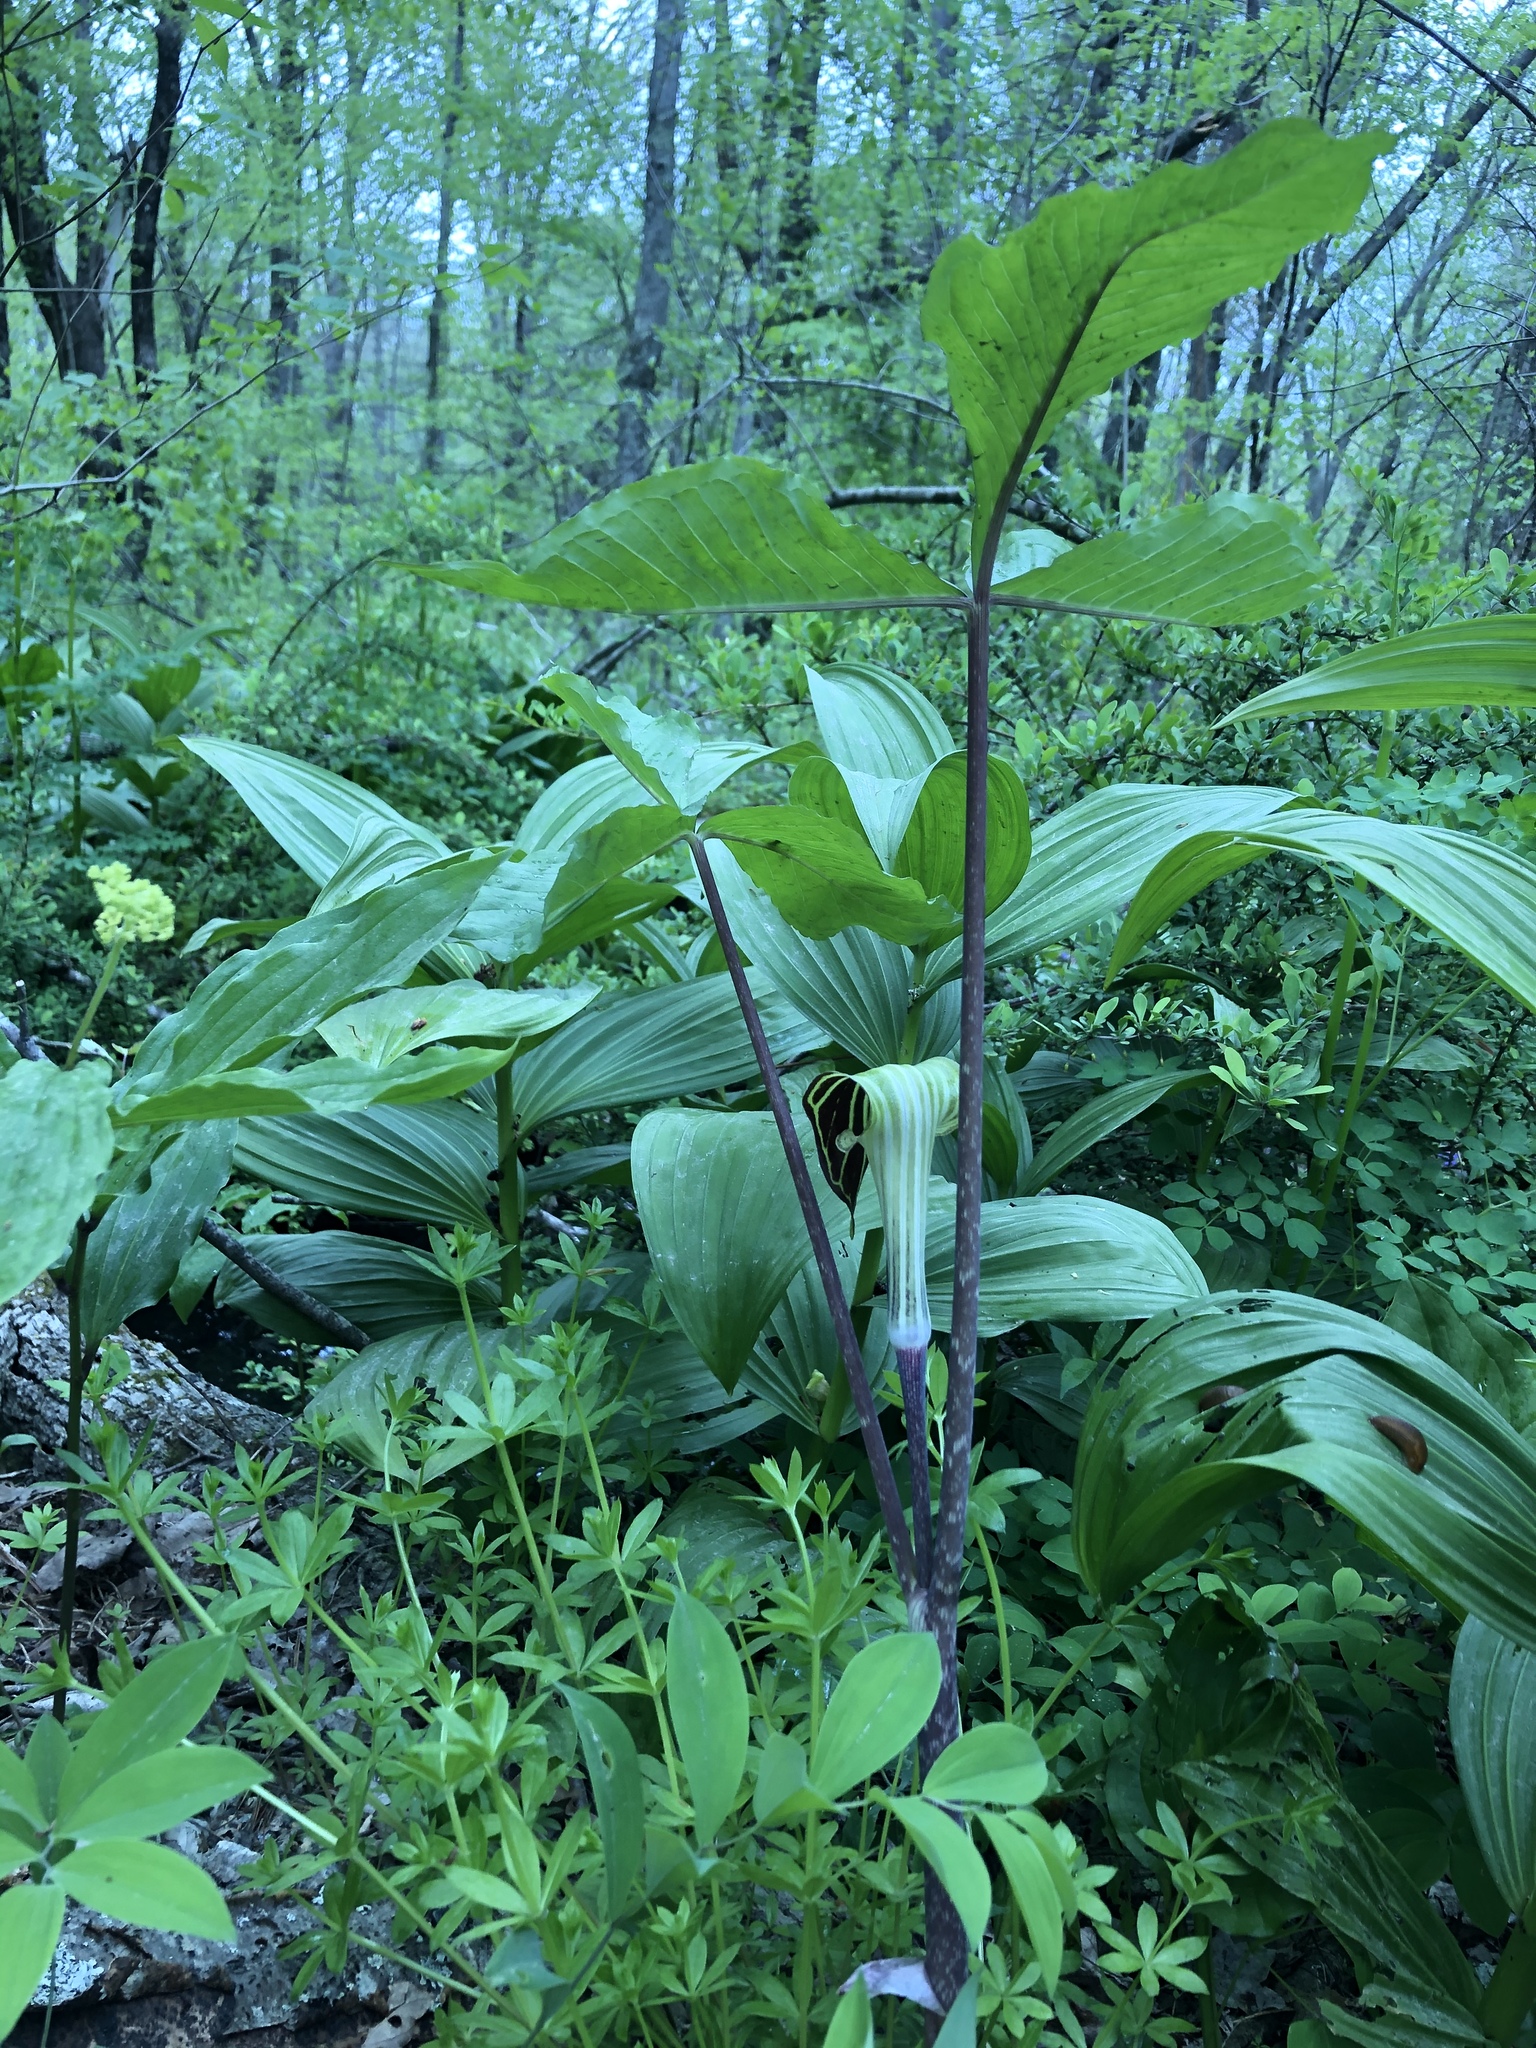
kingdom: Plantae
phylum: Tracheophyta
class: Liliopsida
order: Alismatales
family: Araceae
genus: Arisaema
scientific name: Arisaema triphyllum
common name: Jack-in-the-pulpit
